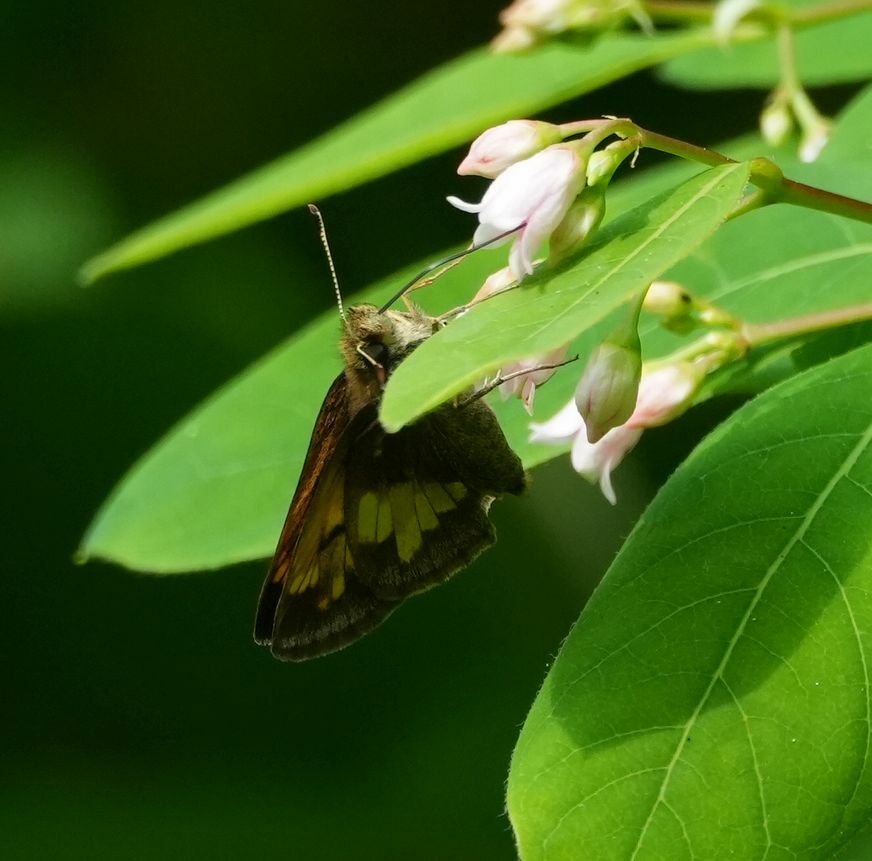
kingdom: Animalia
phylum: Arthropoda
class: Insecta
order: Lepidoptera
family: Hesperiidae
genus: Lon
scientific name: Lon hobomok
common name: Hobomok skipper
